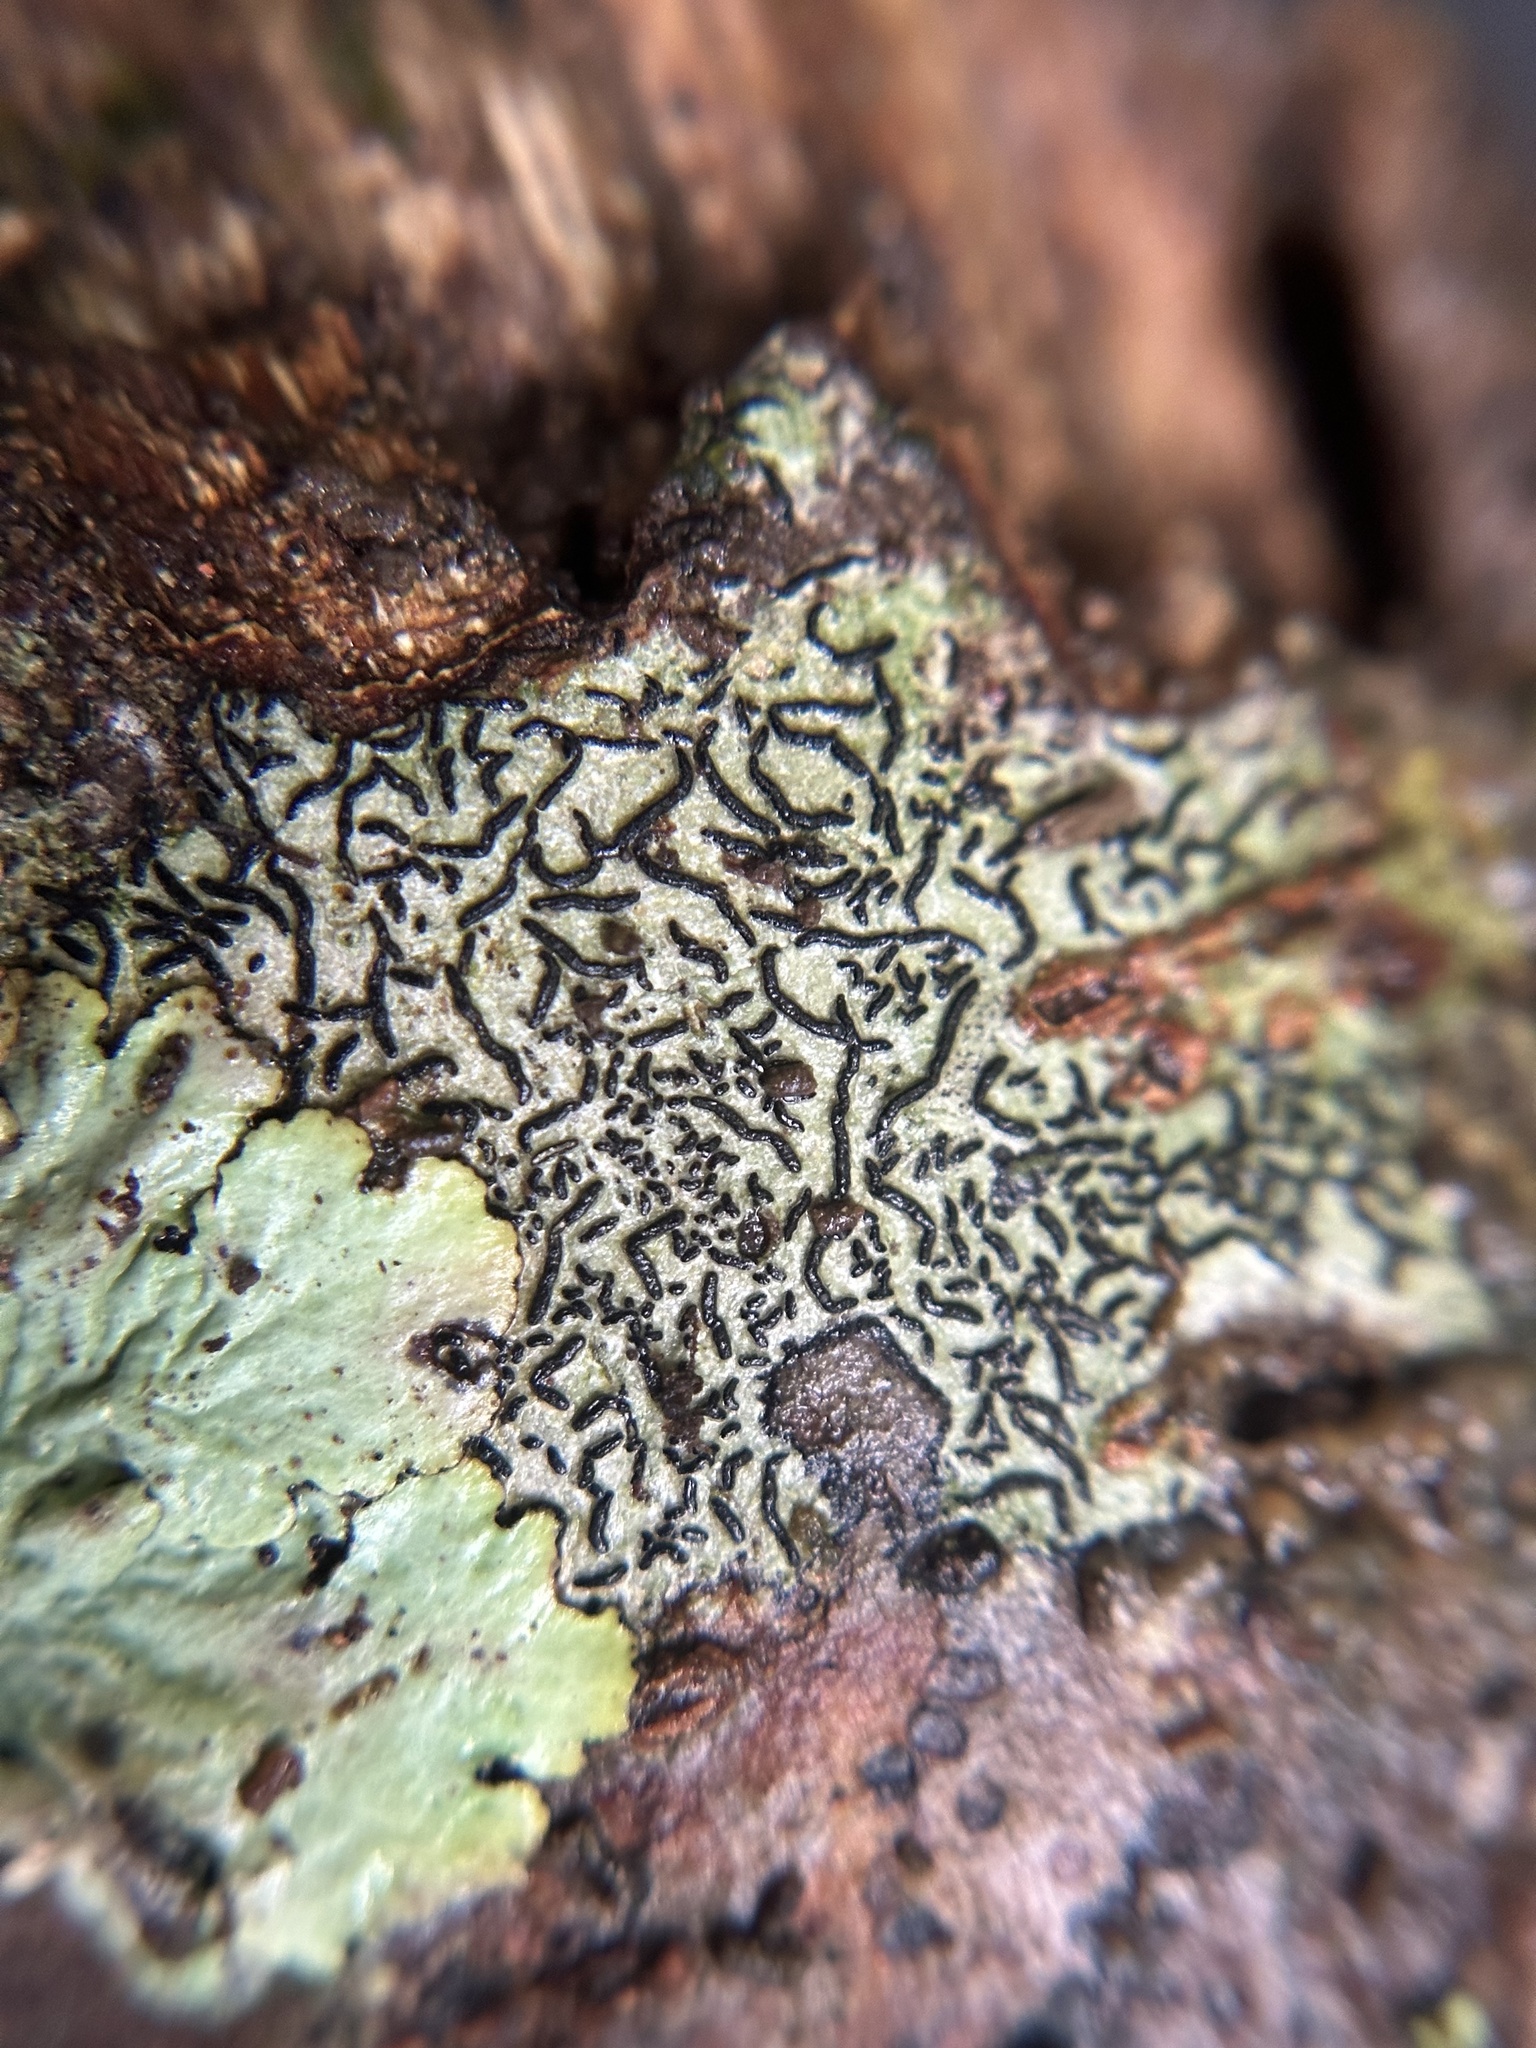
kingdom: Fungi
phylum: Ascomycota
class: Lecanoromycetes
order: Ostropales
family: Graphidaceae
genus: Graphis
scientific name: Graphis scripta
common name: Script lichen
